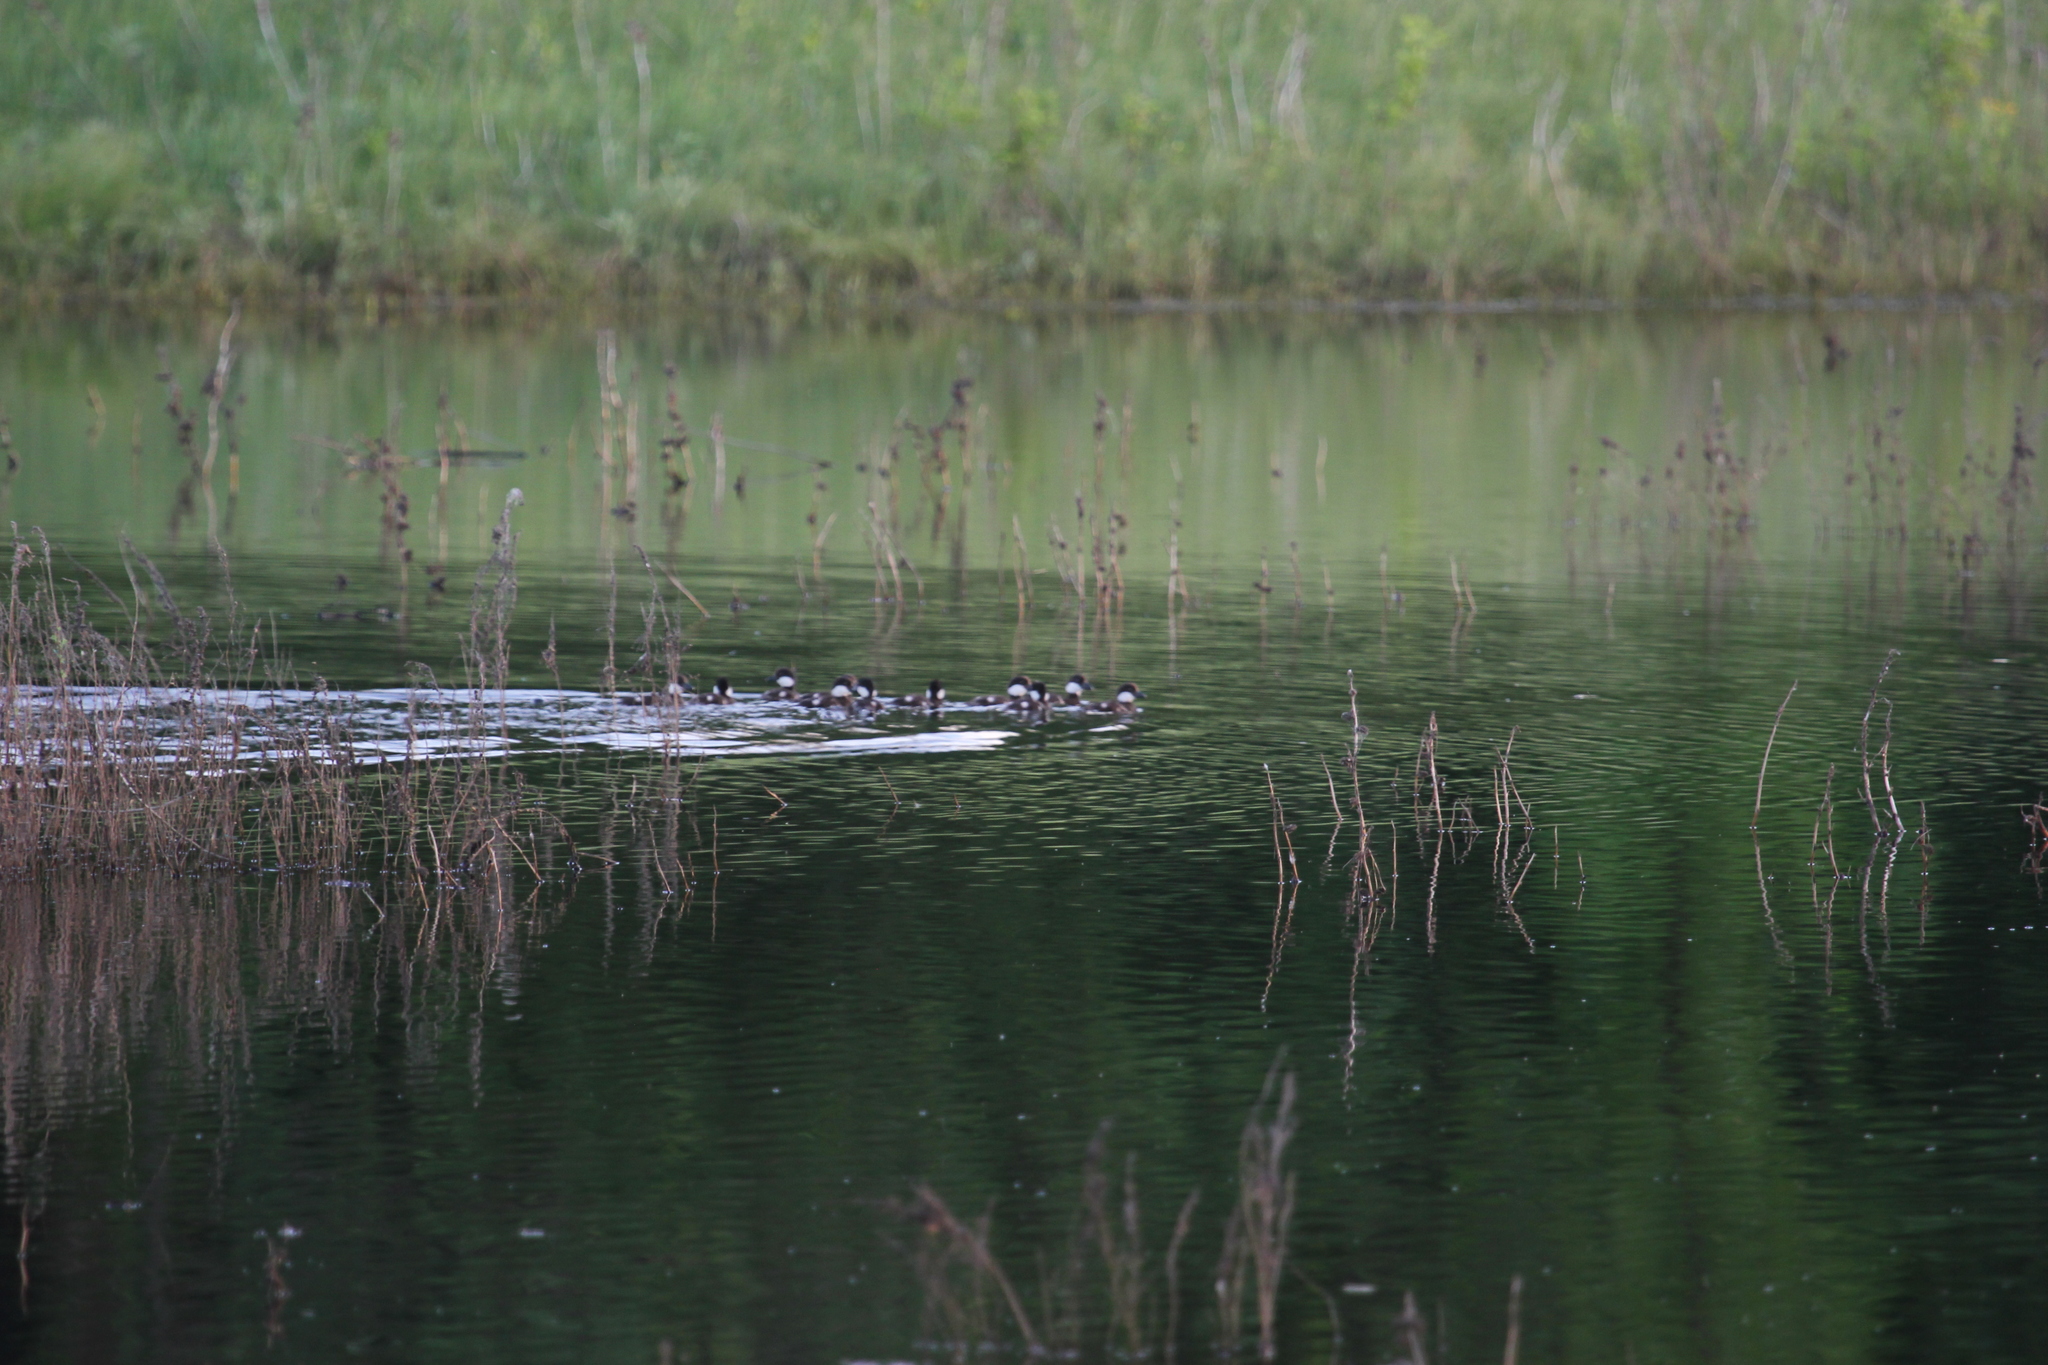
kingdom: Animalia
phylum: Chordata
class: Aves
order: Anseriformes
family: Anatidae
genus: Bucephala
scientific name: Bucephala clangula
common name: Common goldeneye
